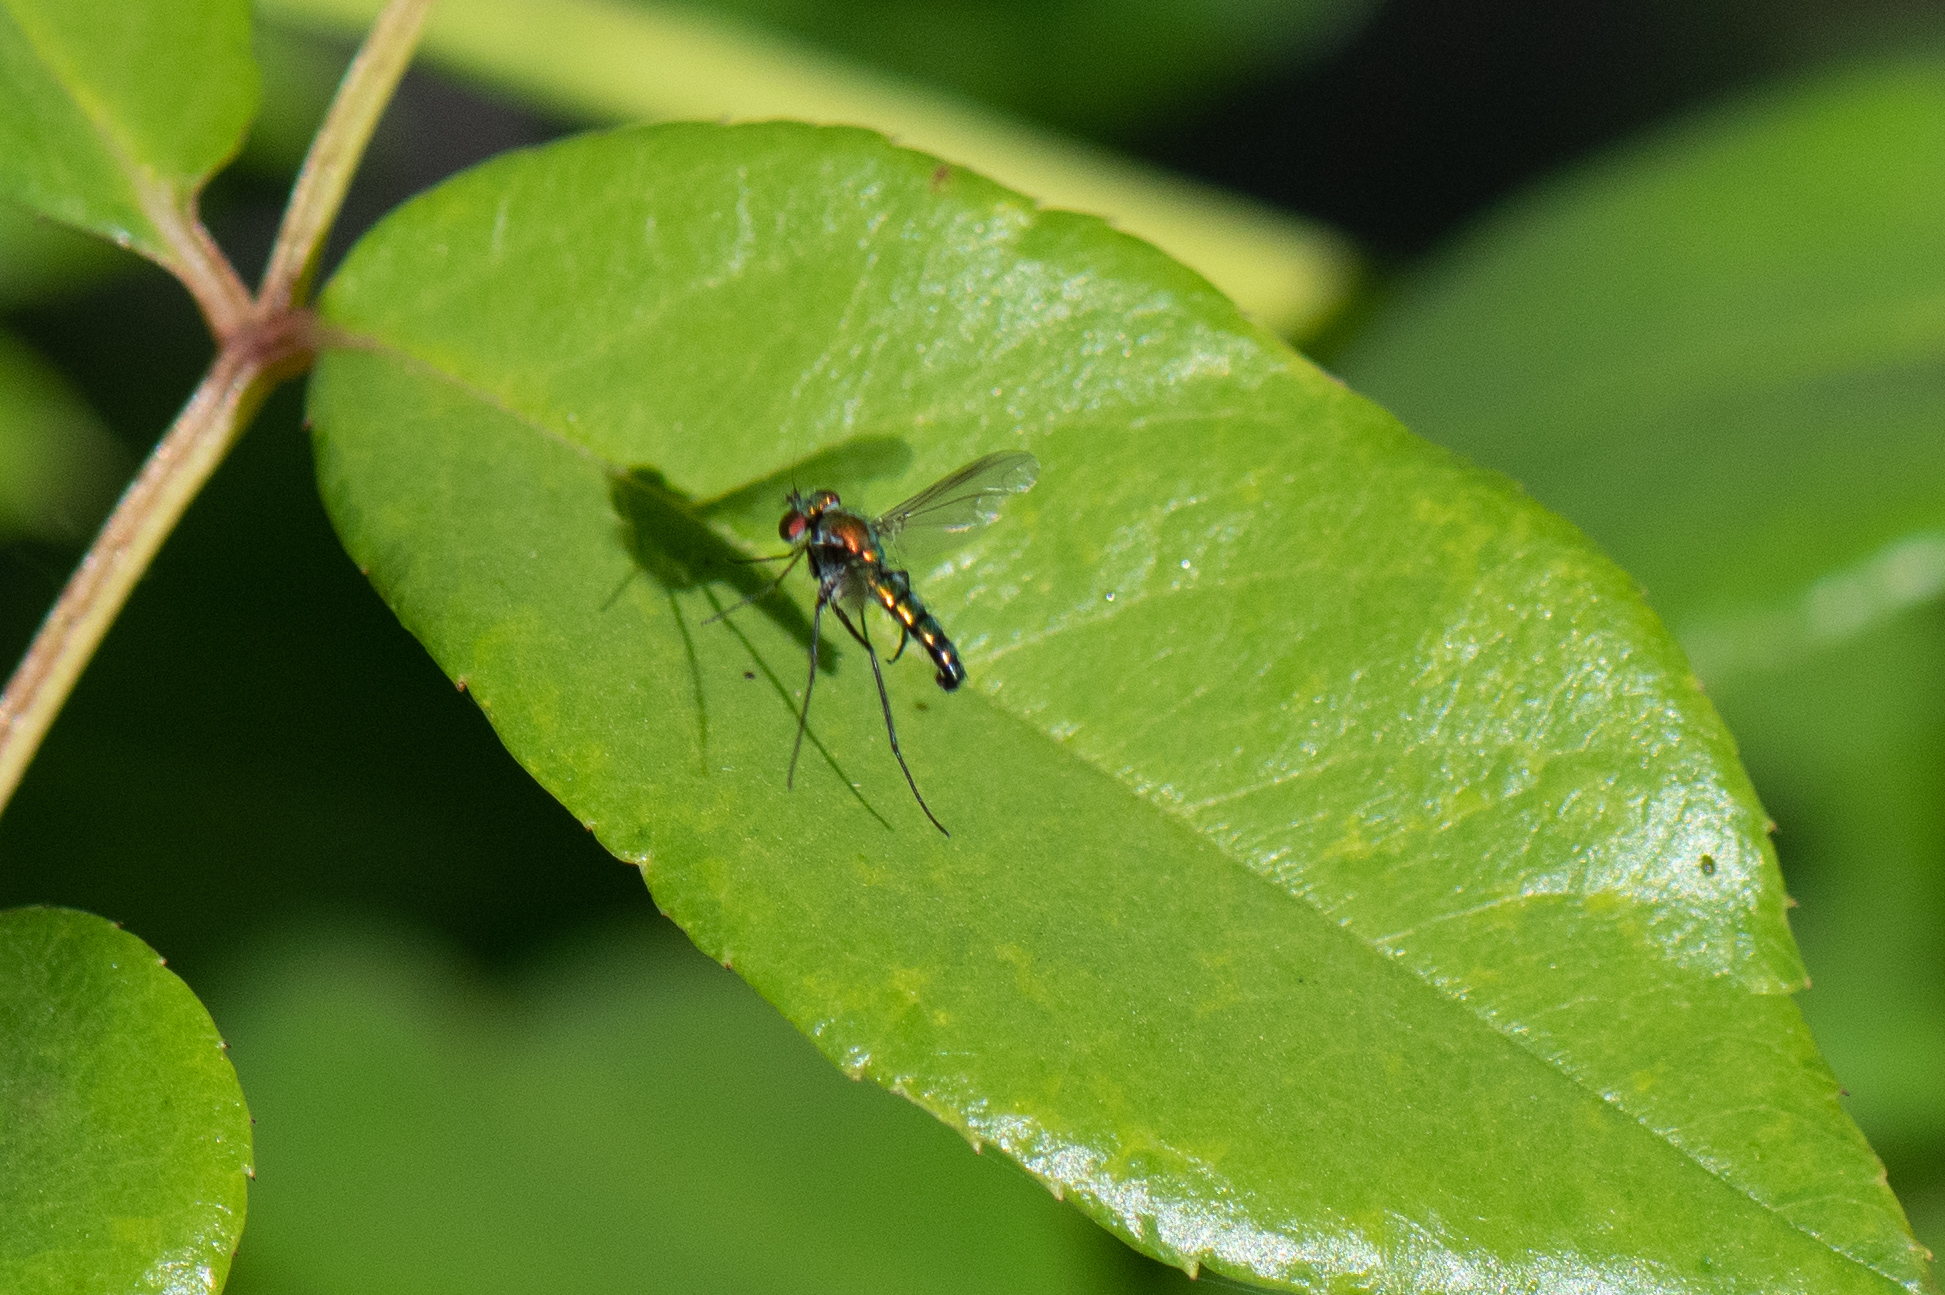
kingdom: Animalia
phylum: Arthropoda
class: Insecta
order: Diptera
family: Dolichopodidae
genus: Condylostylus
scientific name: Condylostylus longicornis
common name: Long-legged fly
